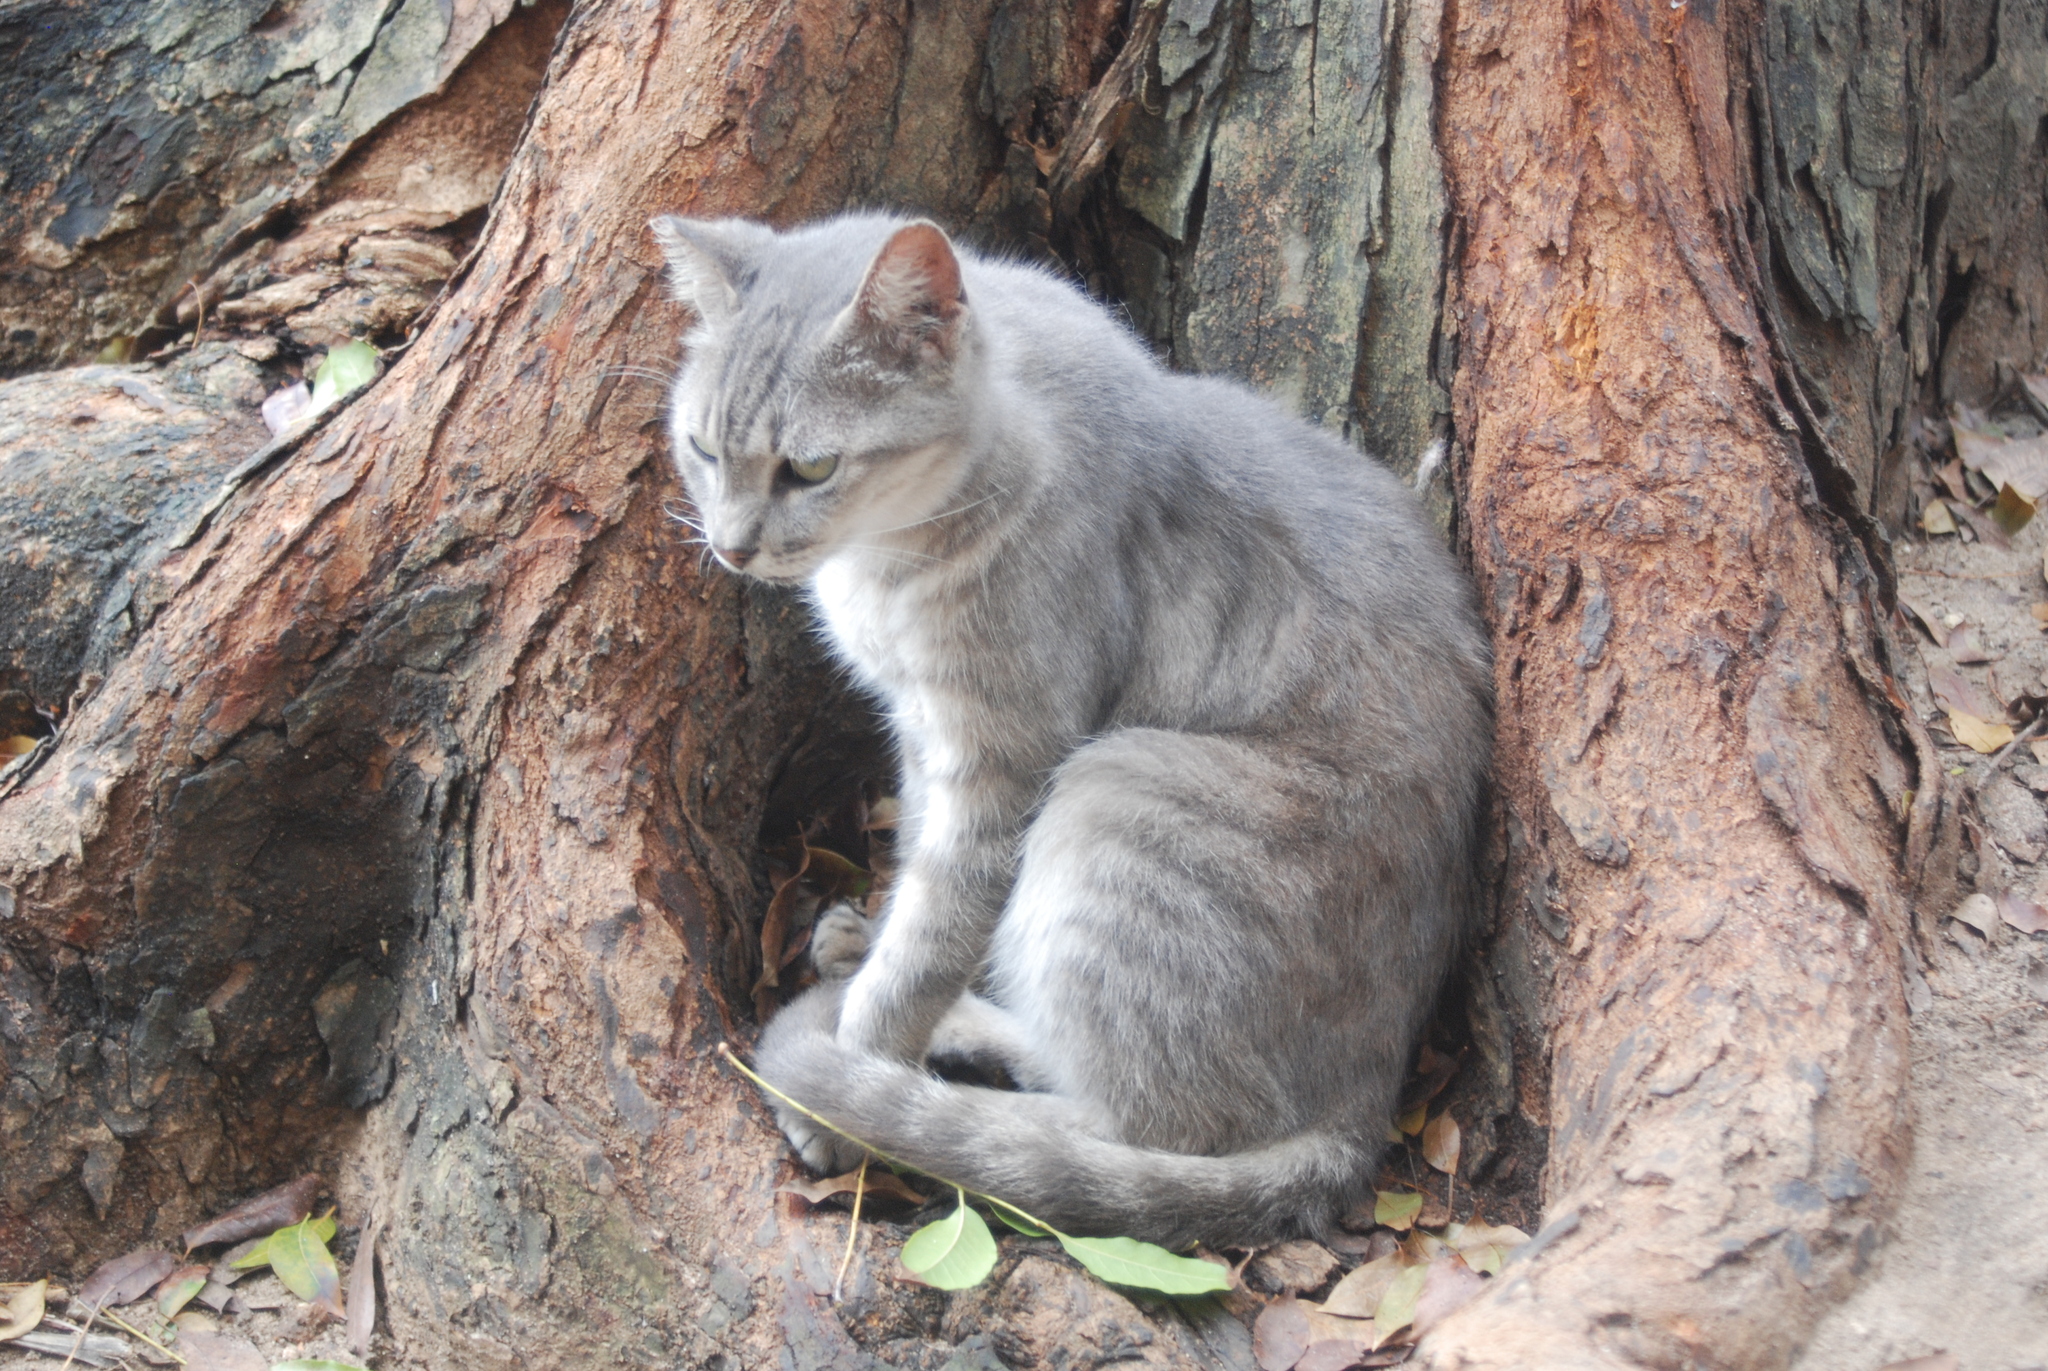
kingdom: Animalia
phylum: Chordata
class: Mammalia
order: Carnivora
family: Felidae
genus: Felis
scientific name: Felis catus
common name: Domestic cat
